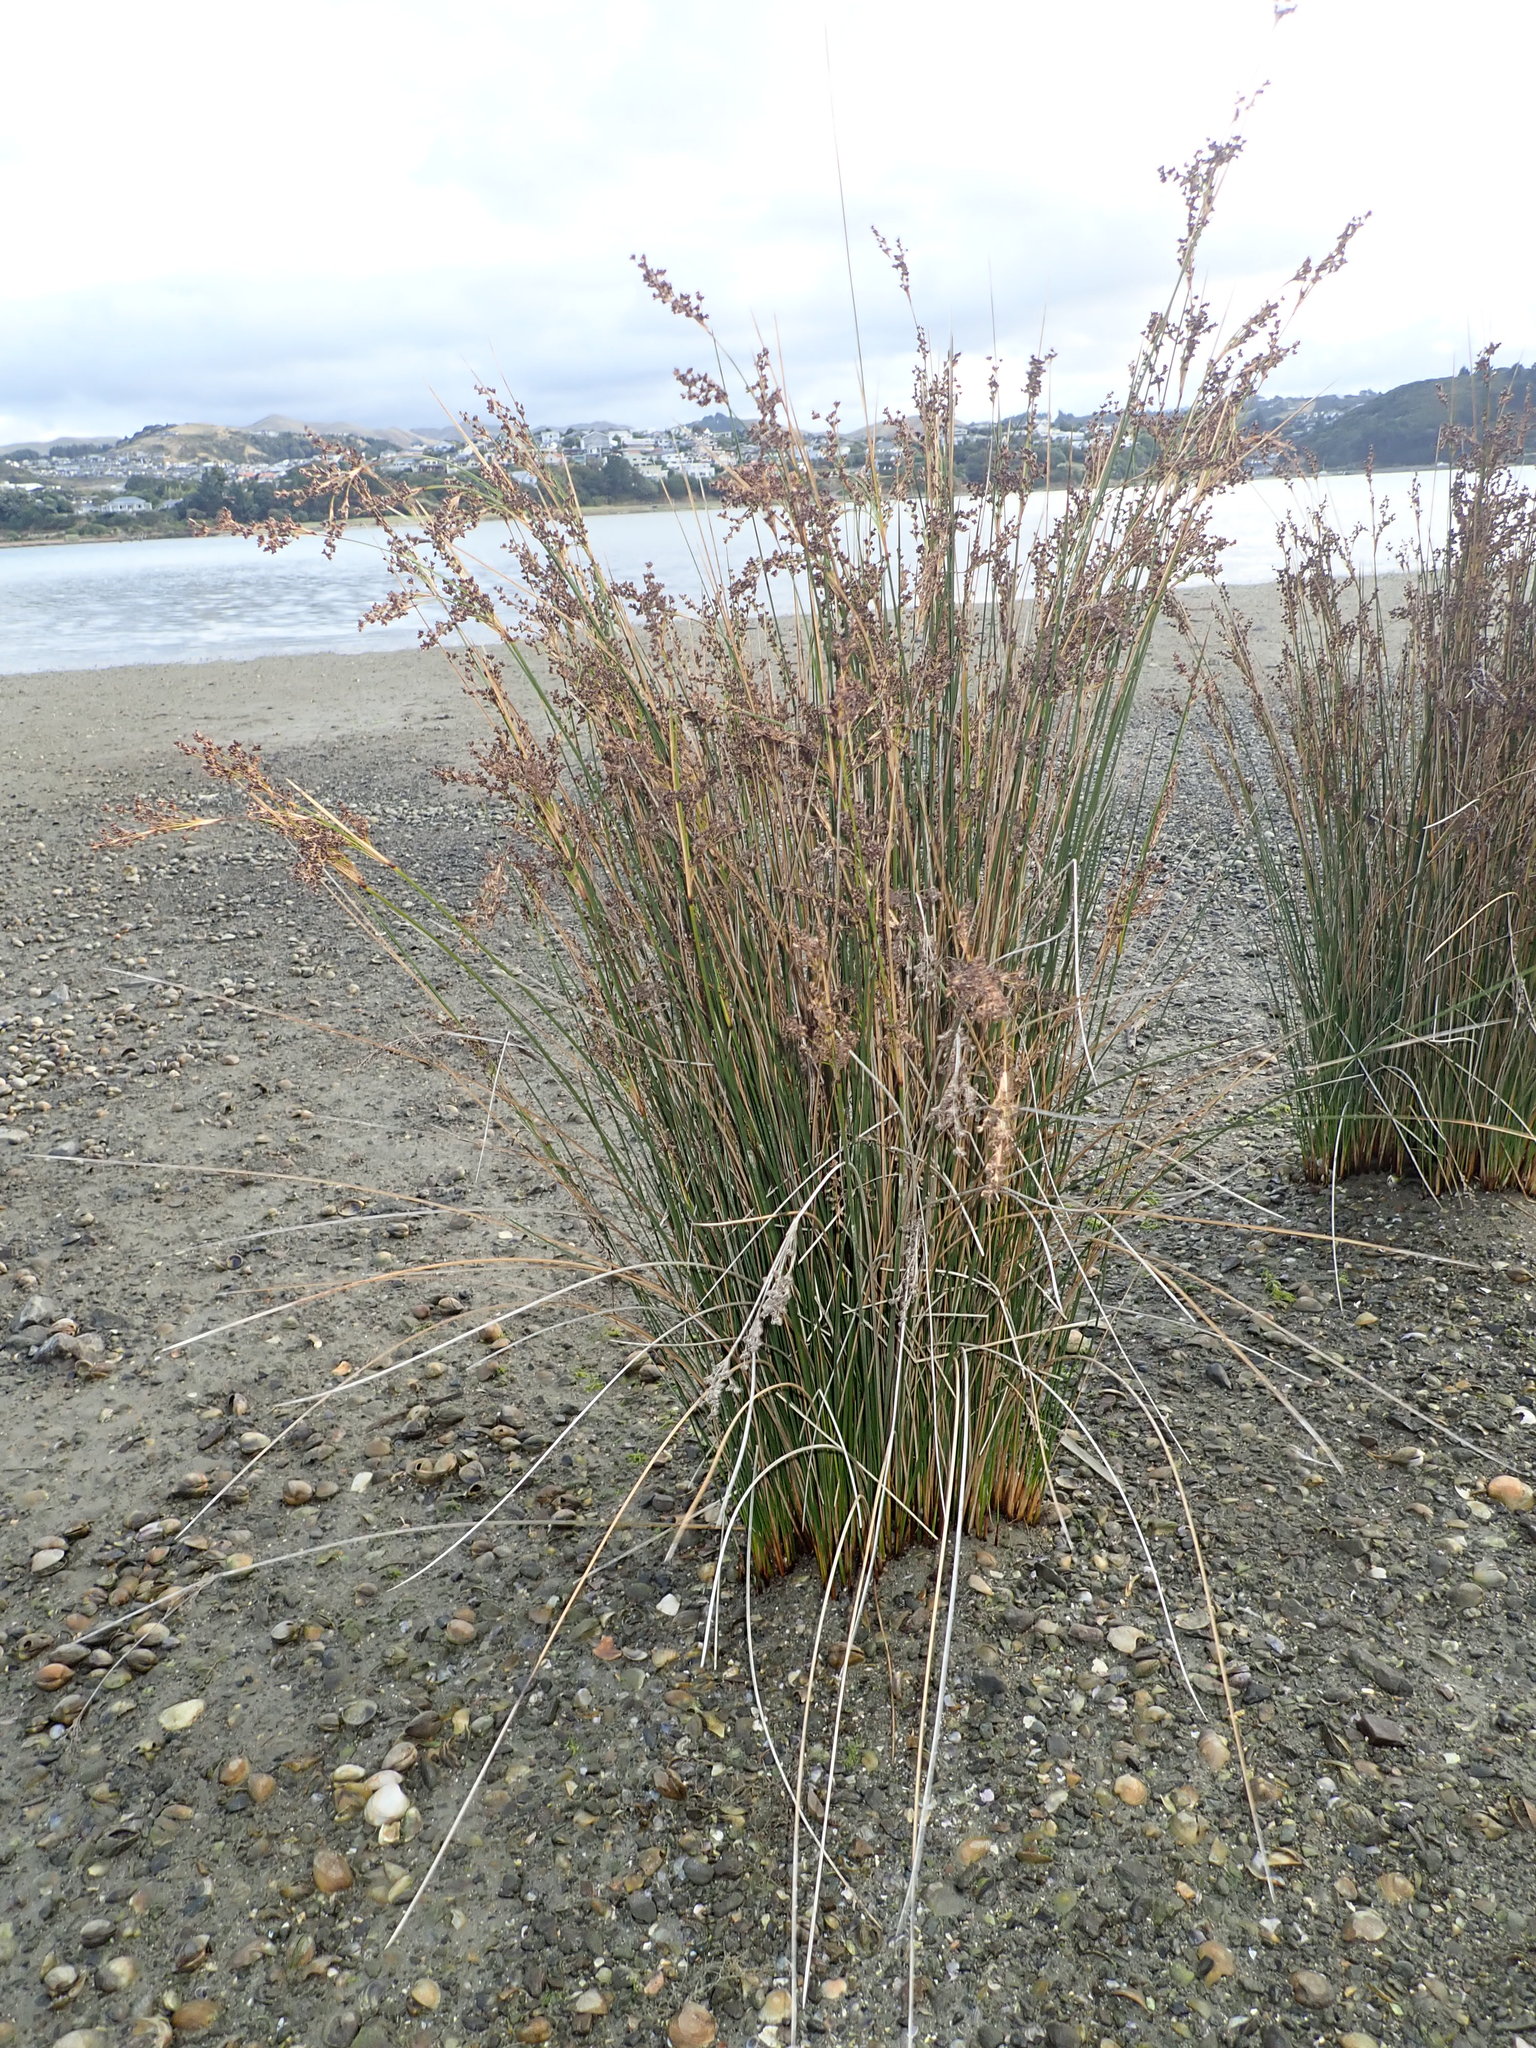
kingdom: Plantae
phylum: Tracheophyta
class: Liliopsida
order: Poales
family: Juncaceae
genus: Juncus
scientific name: Juncus kraussii
